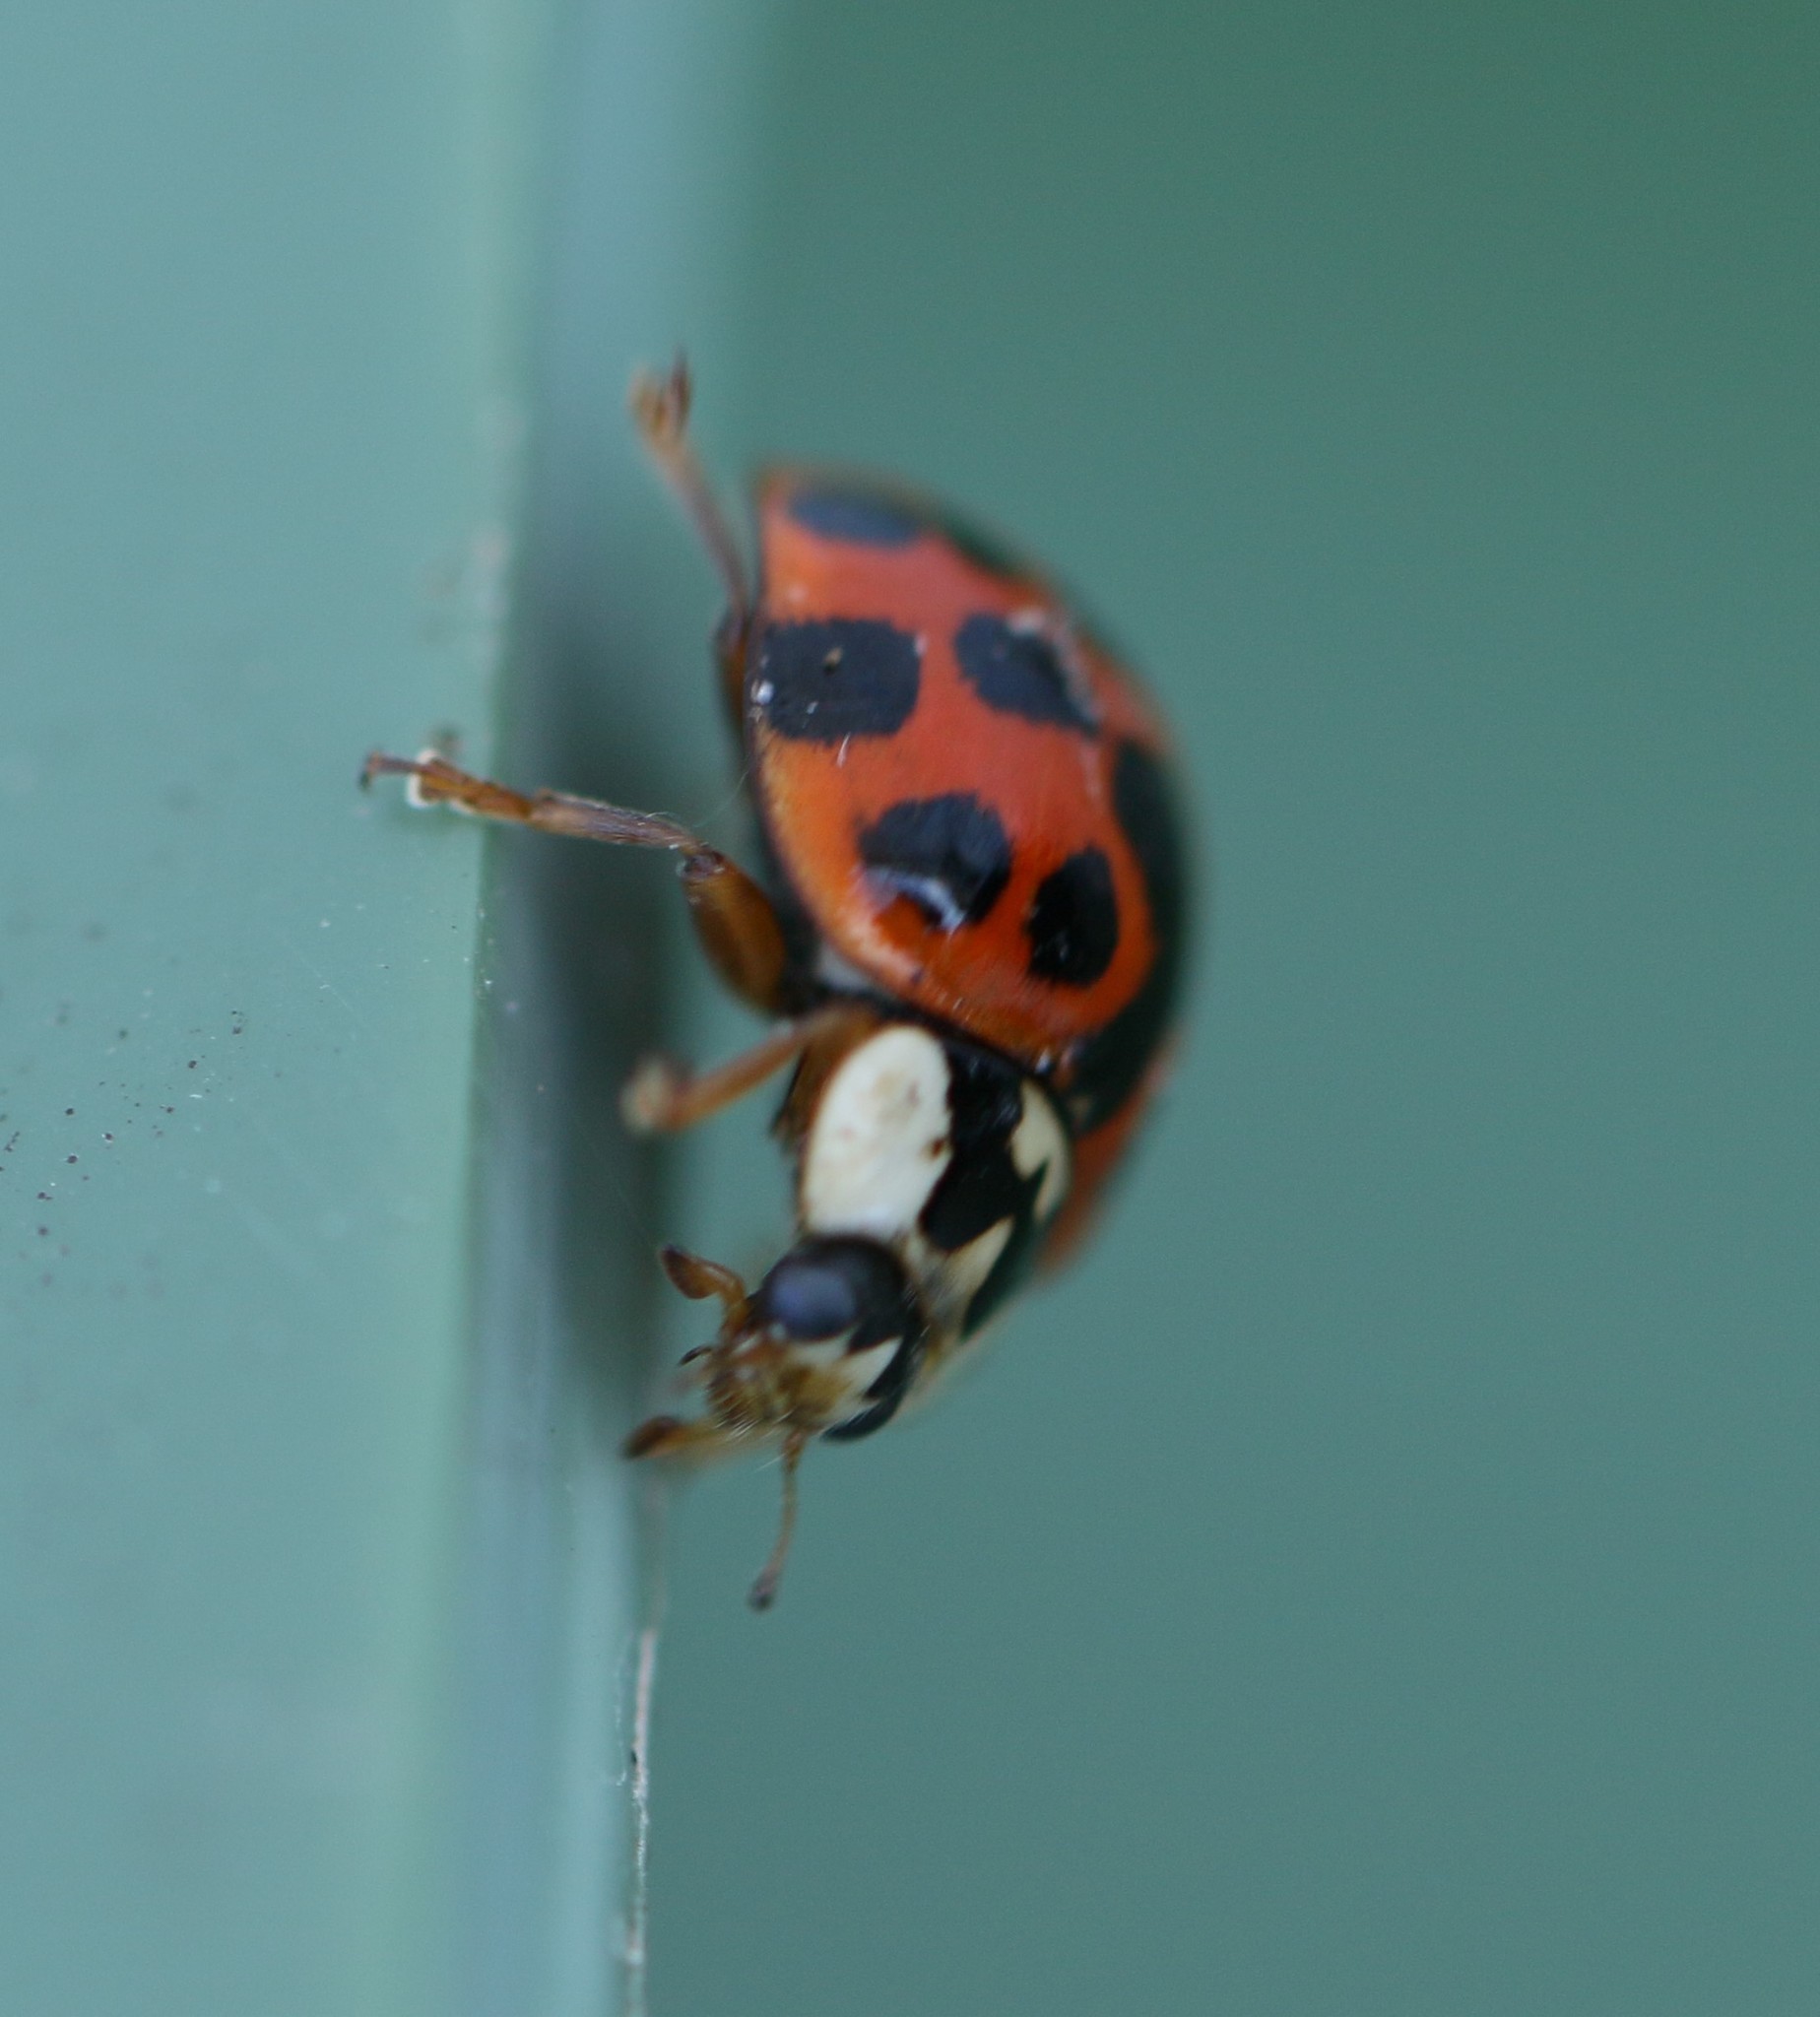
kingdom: Animalia
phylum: Arthropoda
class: Insecta
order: Coleoptera
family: Coccinellidae
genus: Harmonia
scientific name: Harmonia axyridis
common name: Harlequin ladybird
